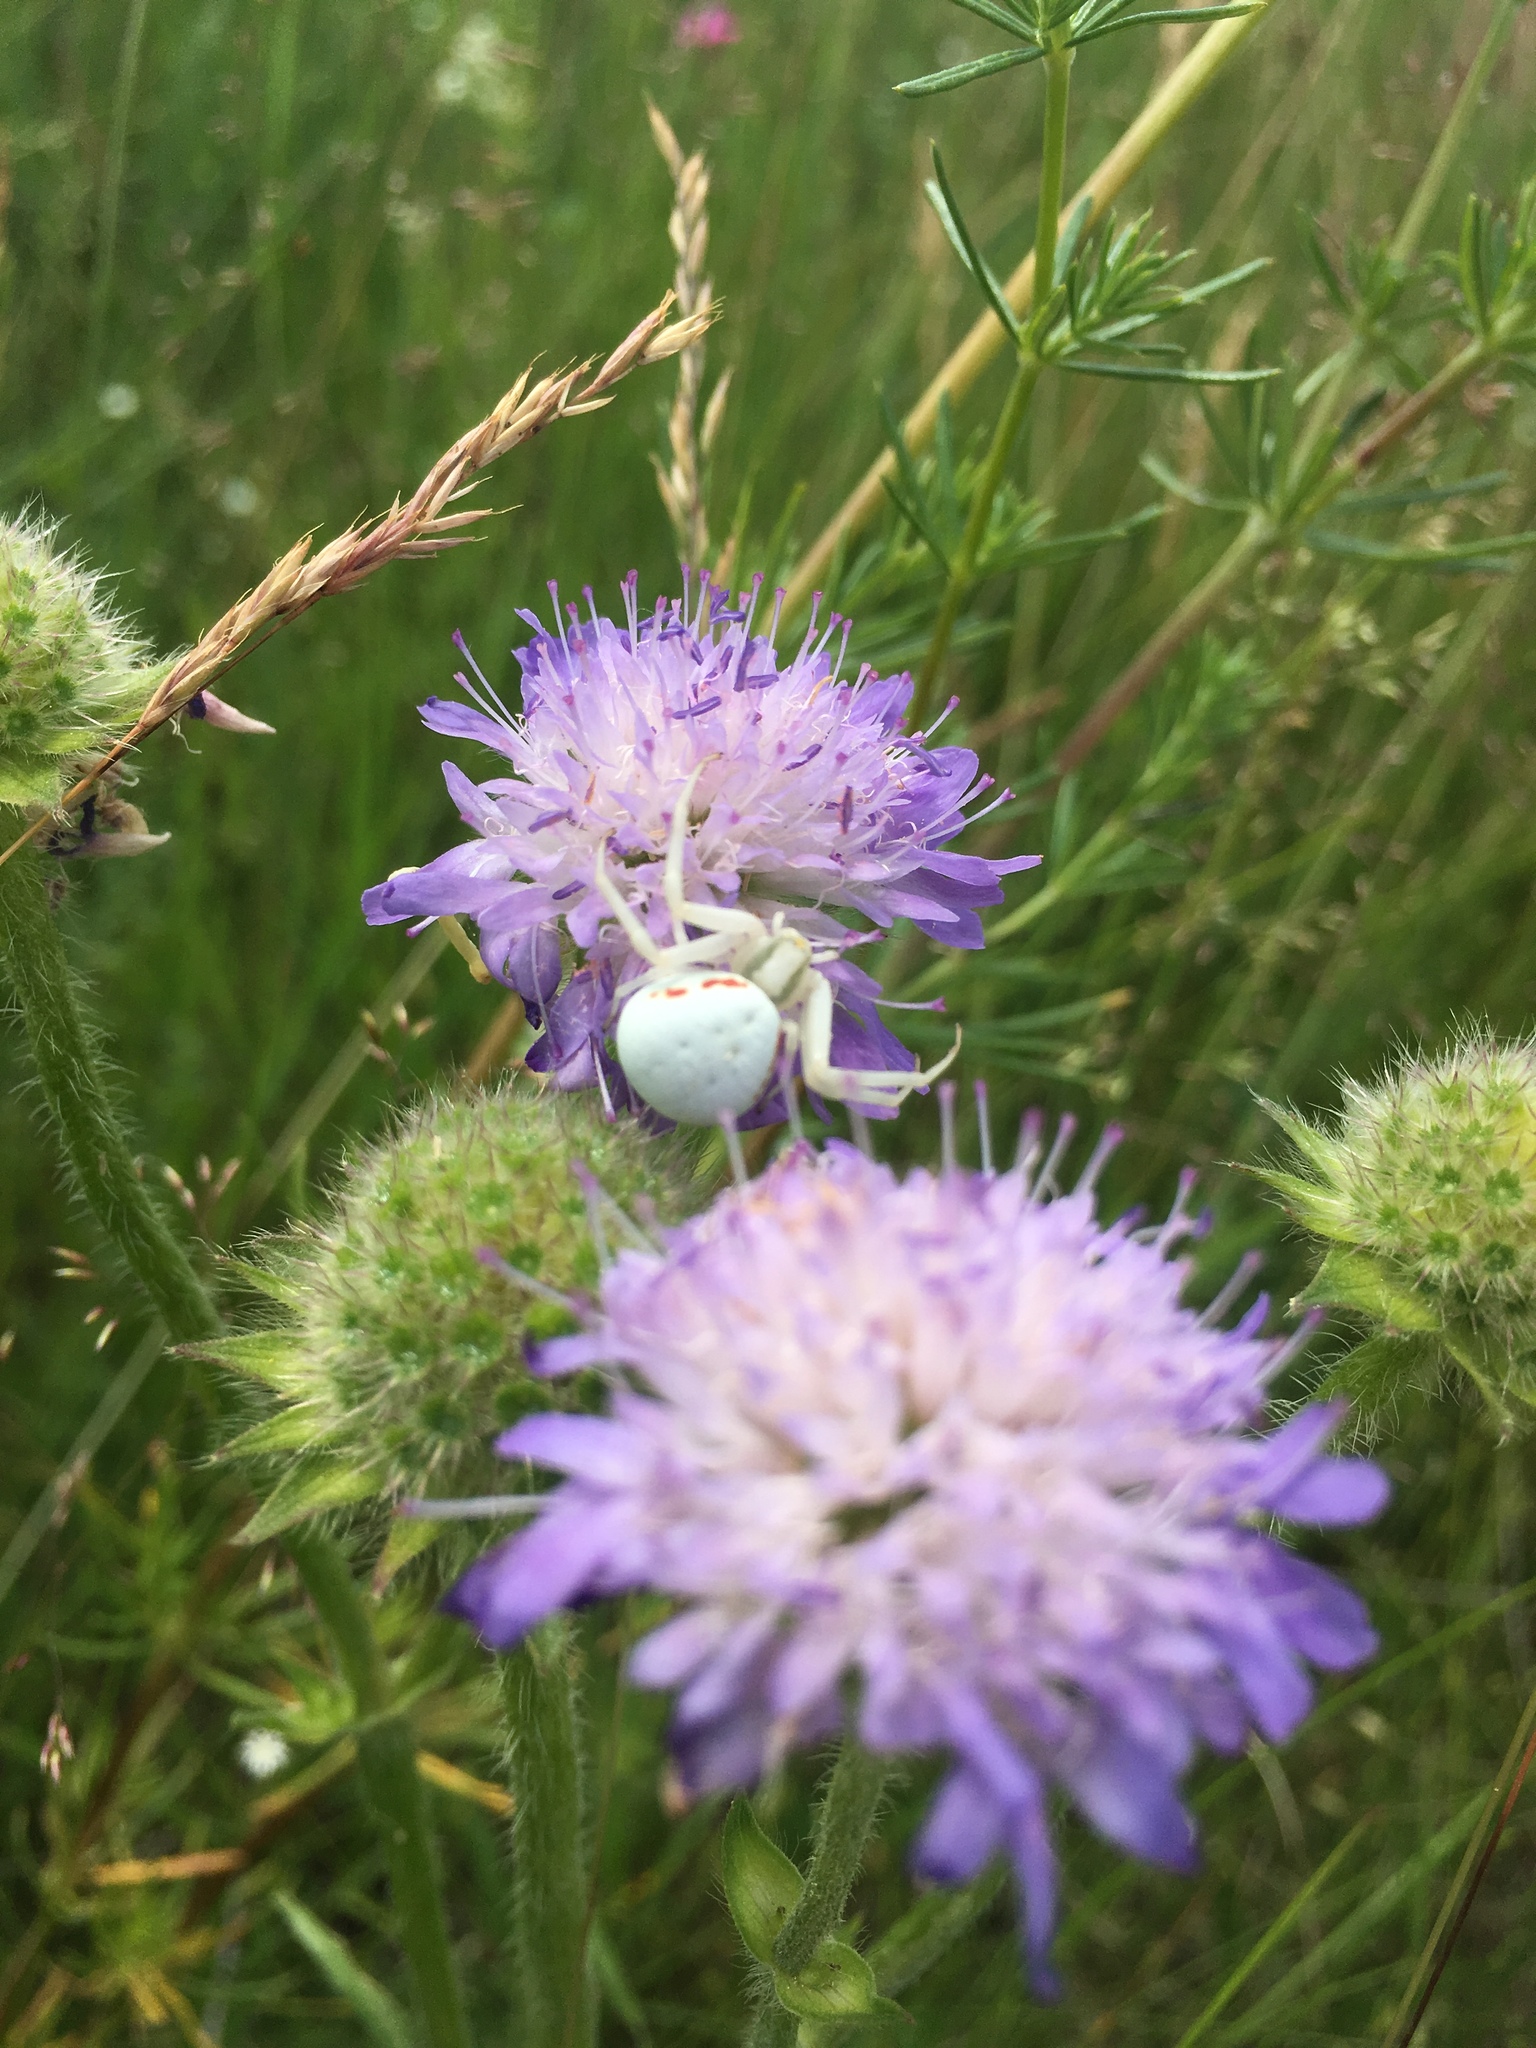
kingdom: Animalia
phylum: Arthropoda
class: Arachnida
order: Araneae
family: Thomisidae
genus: Misumena
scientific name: Misumena vatia
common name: Goldenrod crab spider
